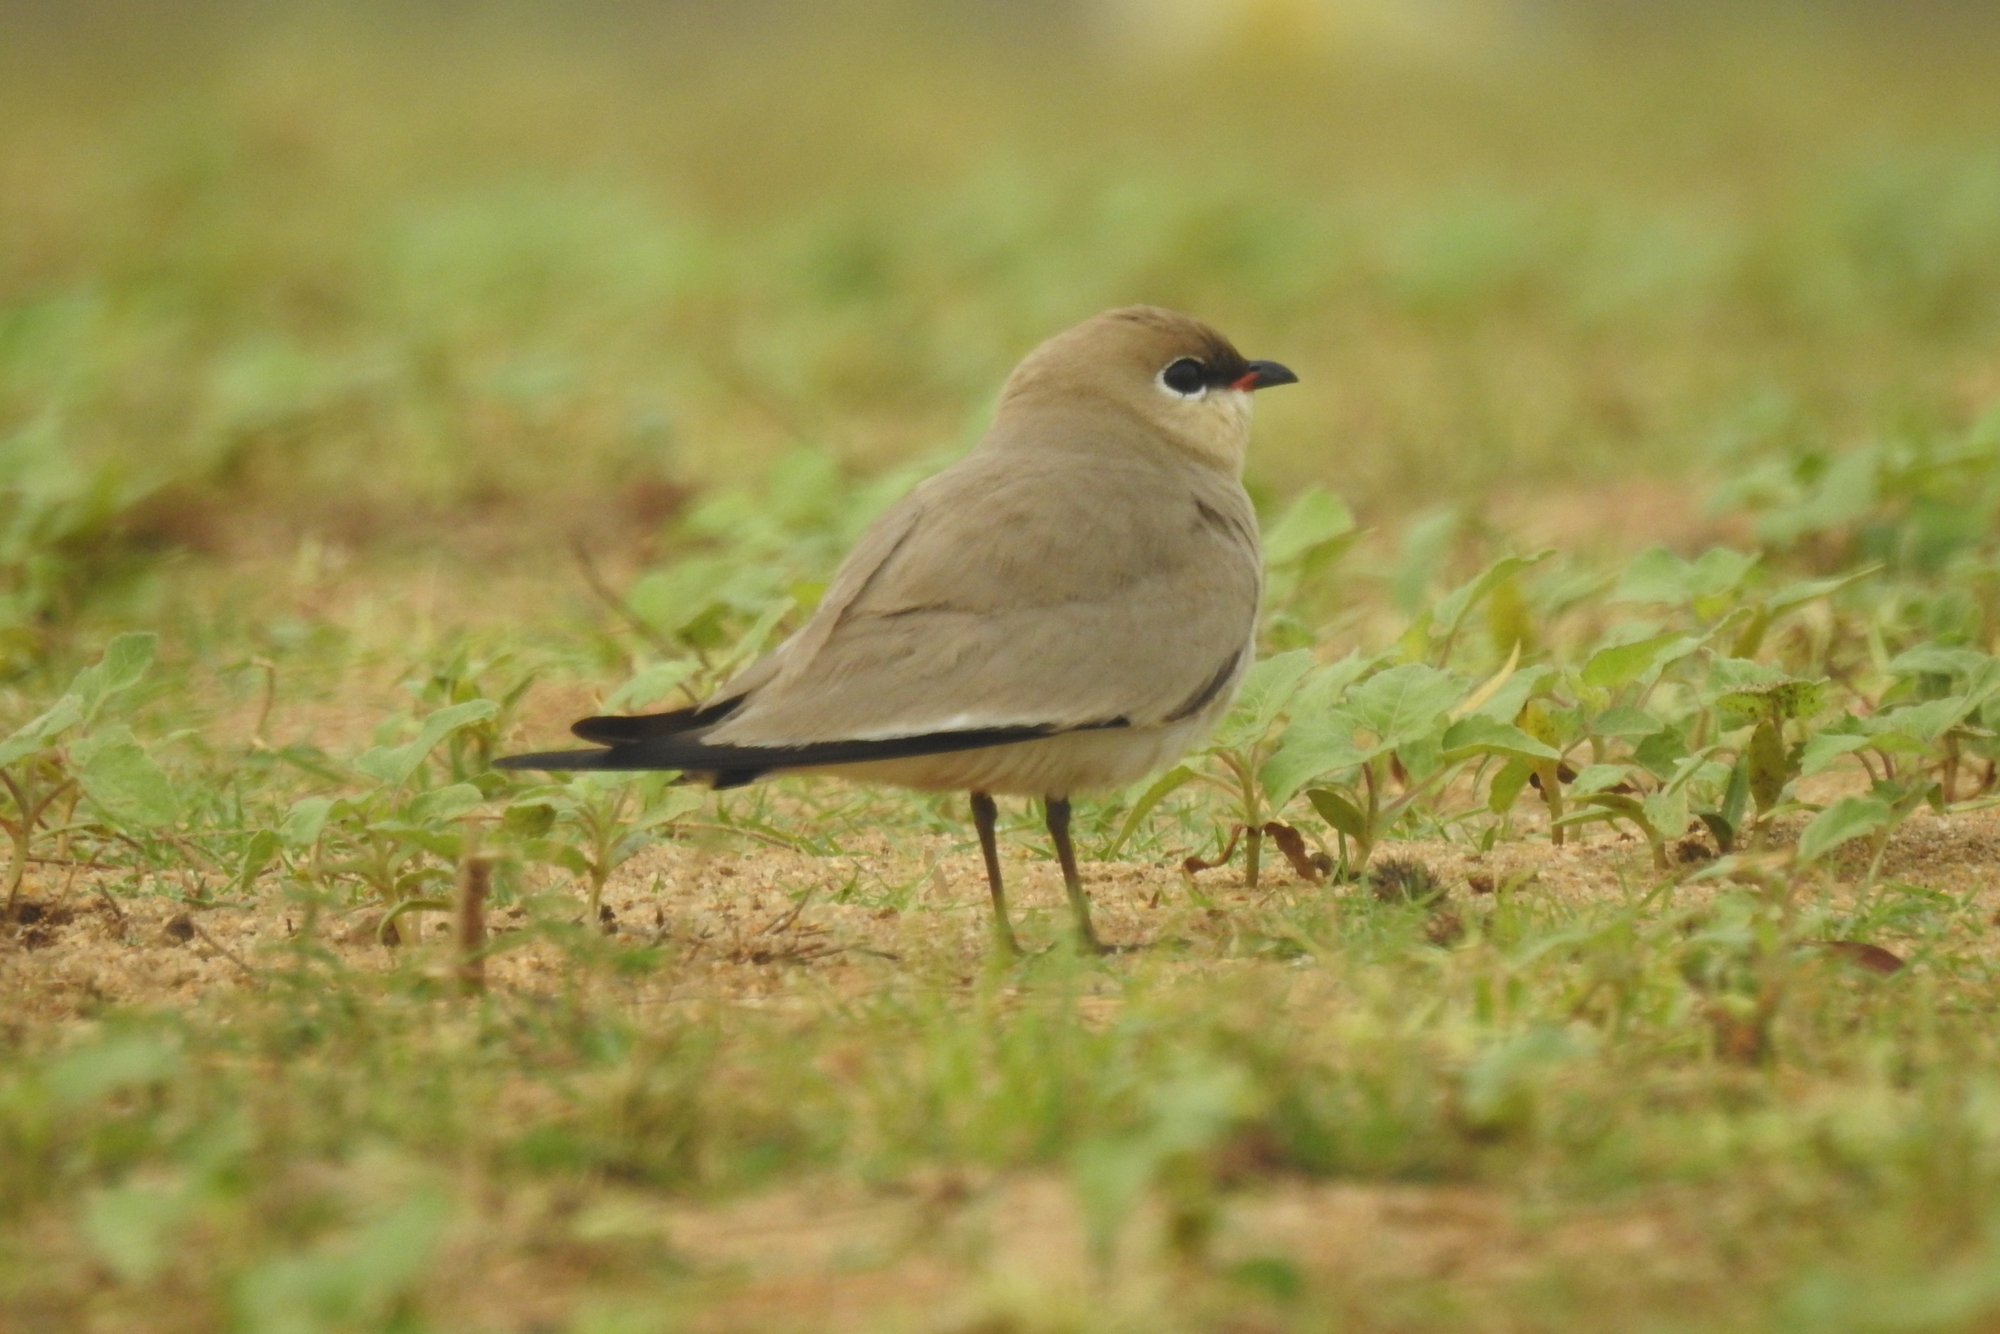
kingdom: Animalia
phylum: Chordata
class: Aves
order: Charadriiformes
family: Glareolidae
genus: Glareola
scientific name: Glareola lactea
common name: Small pratincole
